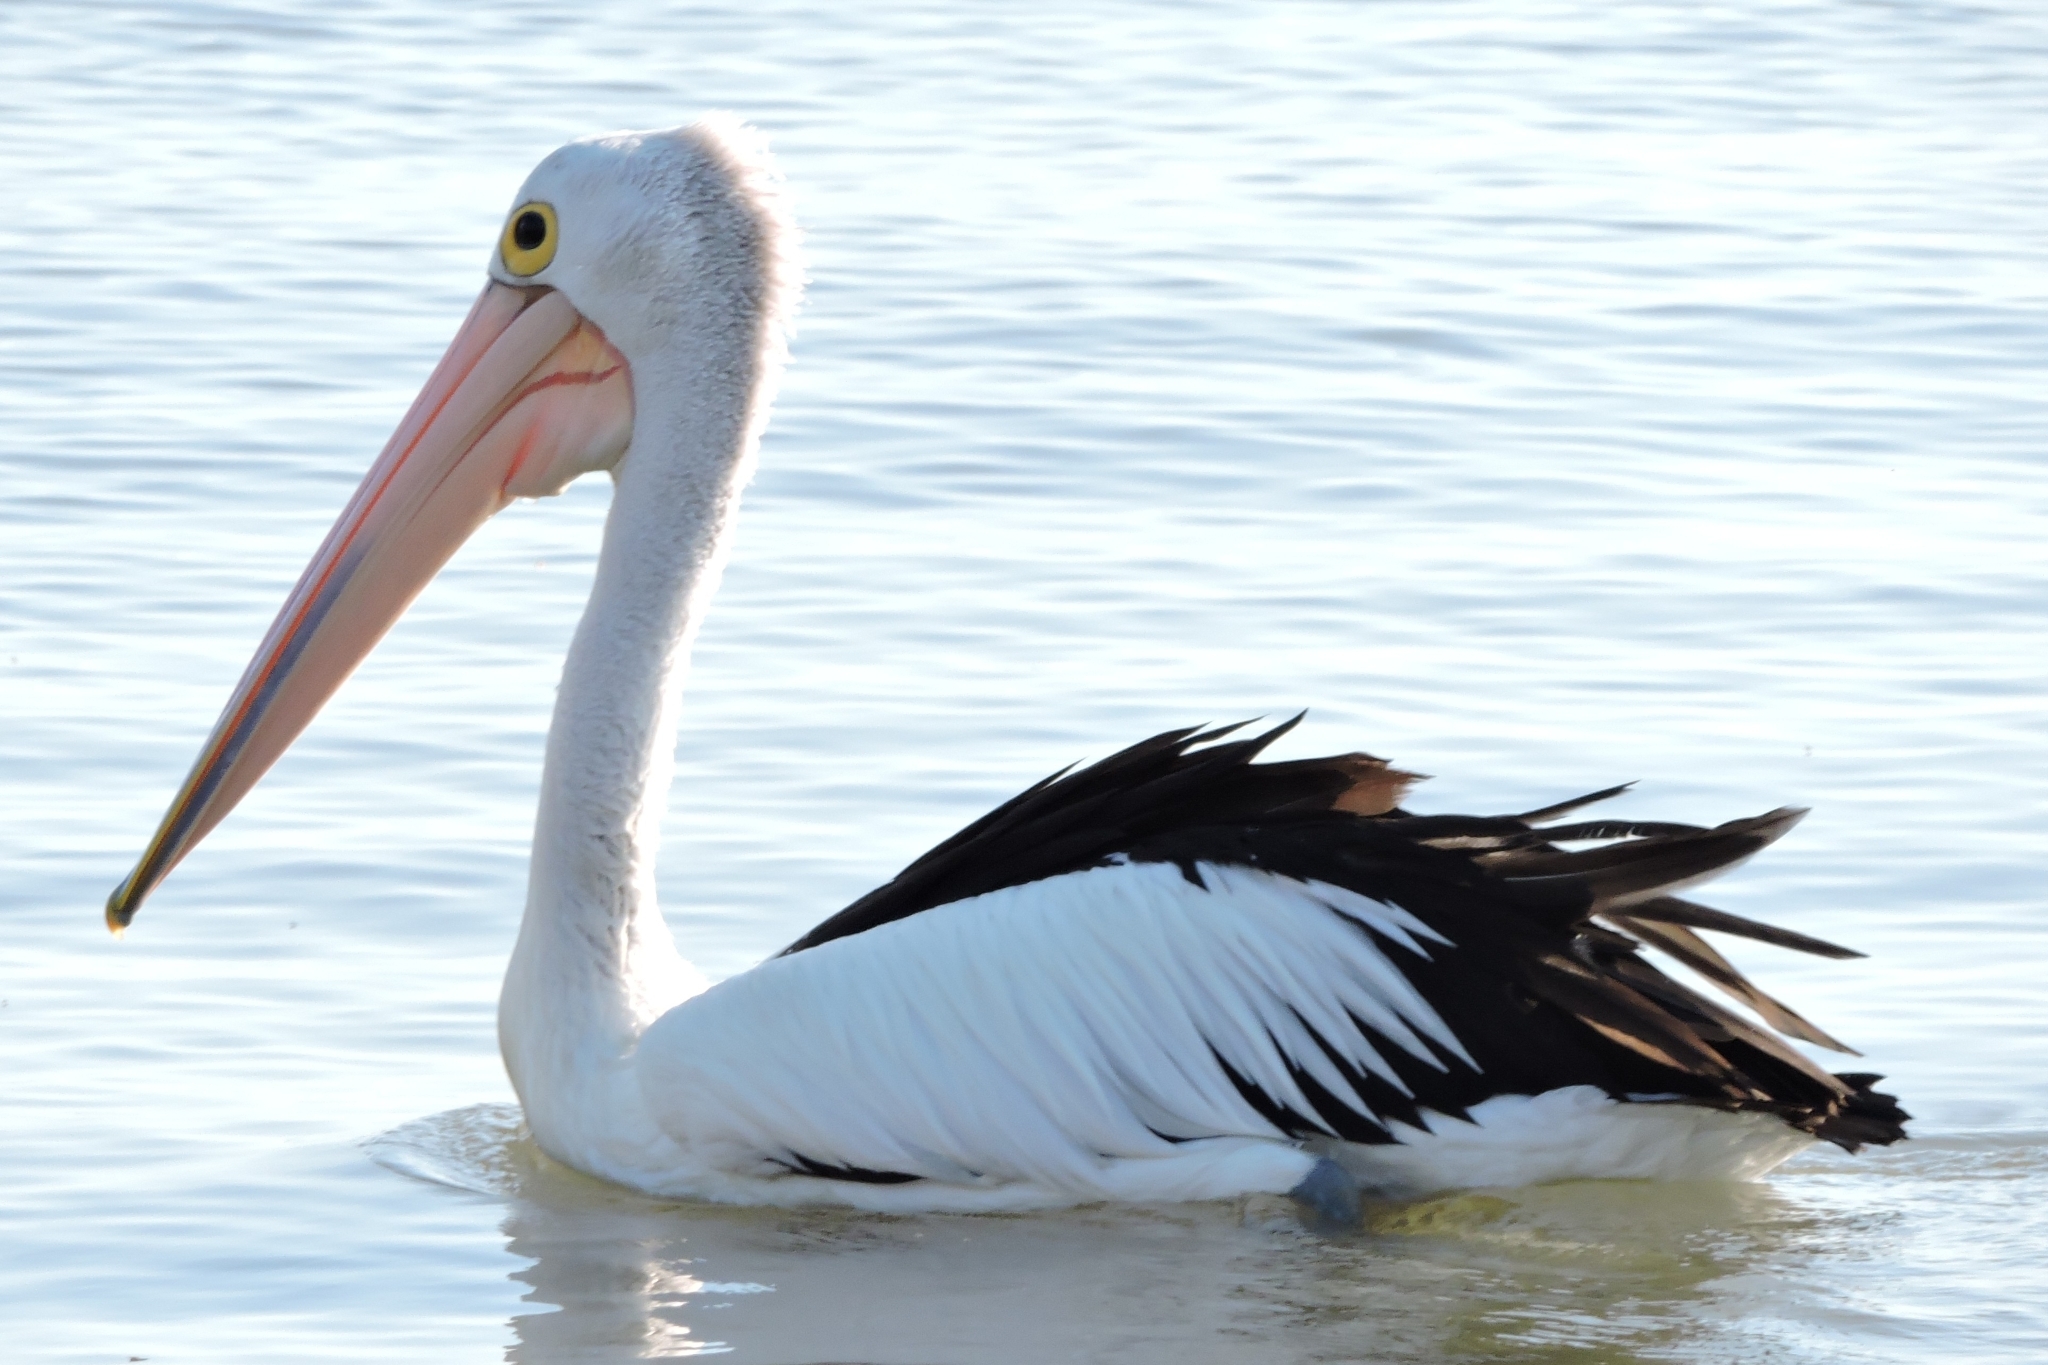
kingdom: Animalia
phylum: Chordata
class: Aves
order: Pelecaniformes
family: Pelecanidae
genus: Pelecanus
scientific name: Pelecanus conspicillatus
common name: Australian pelican
